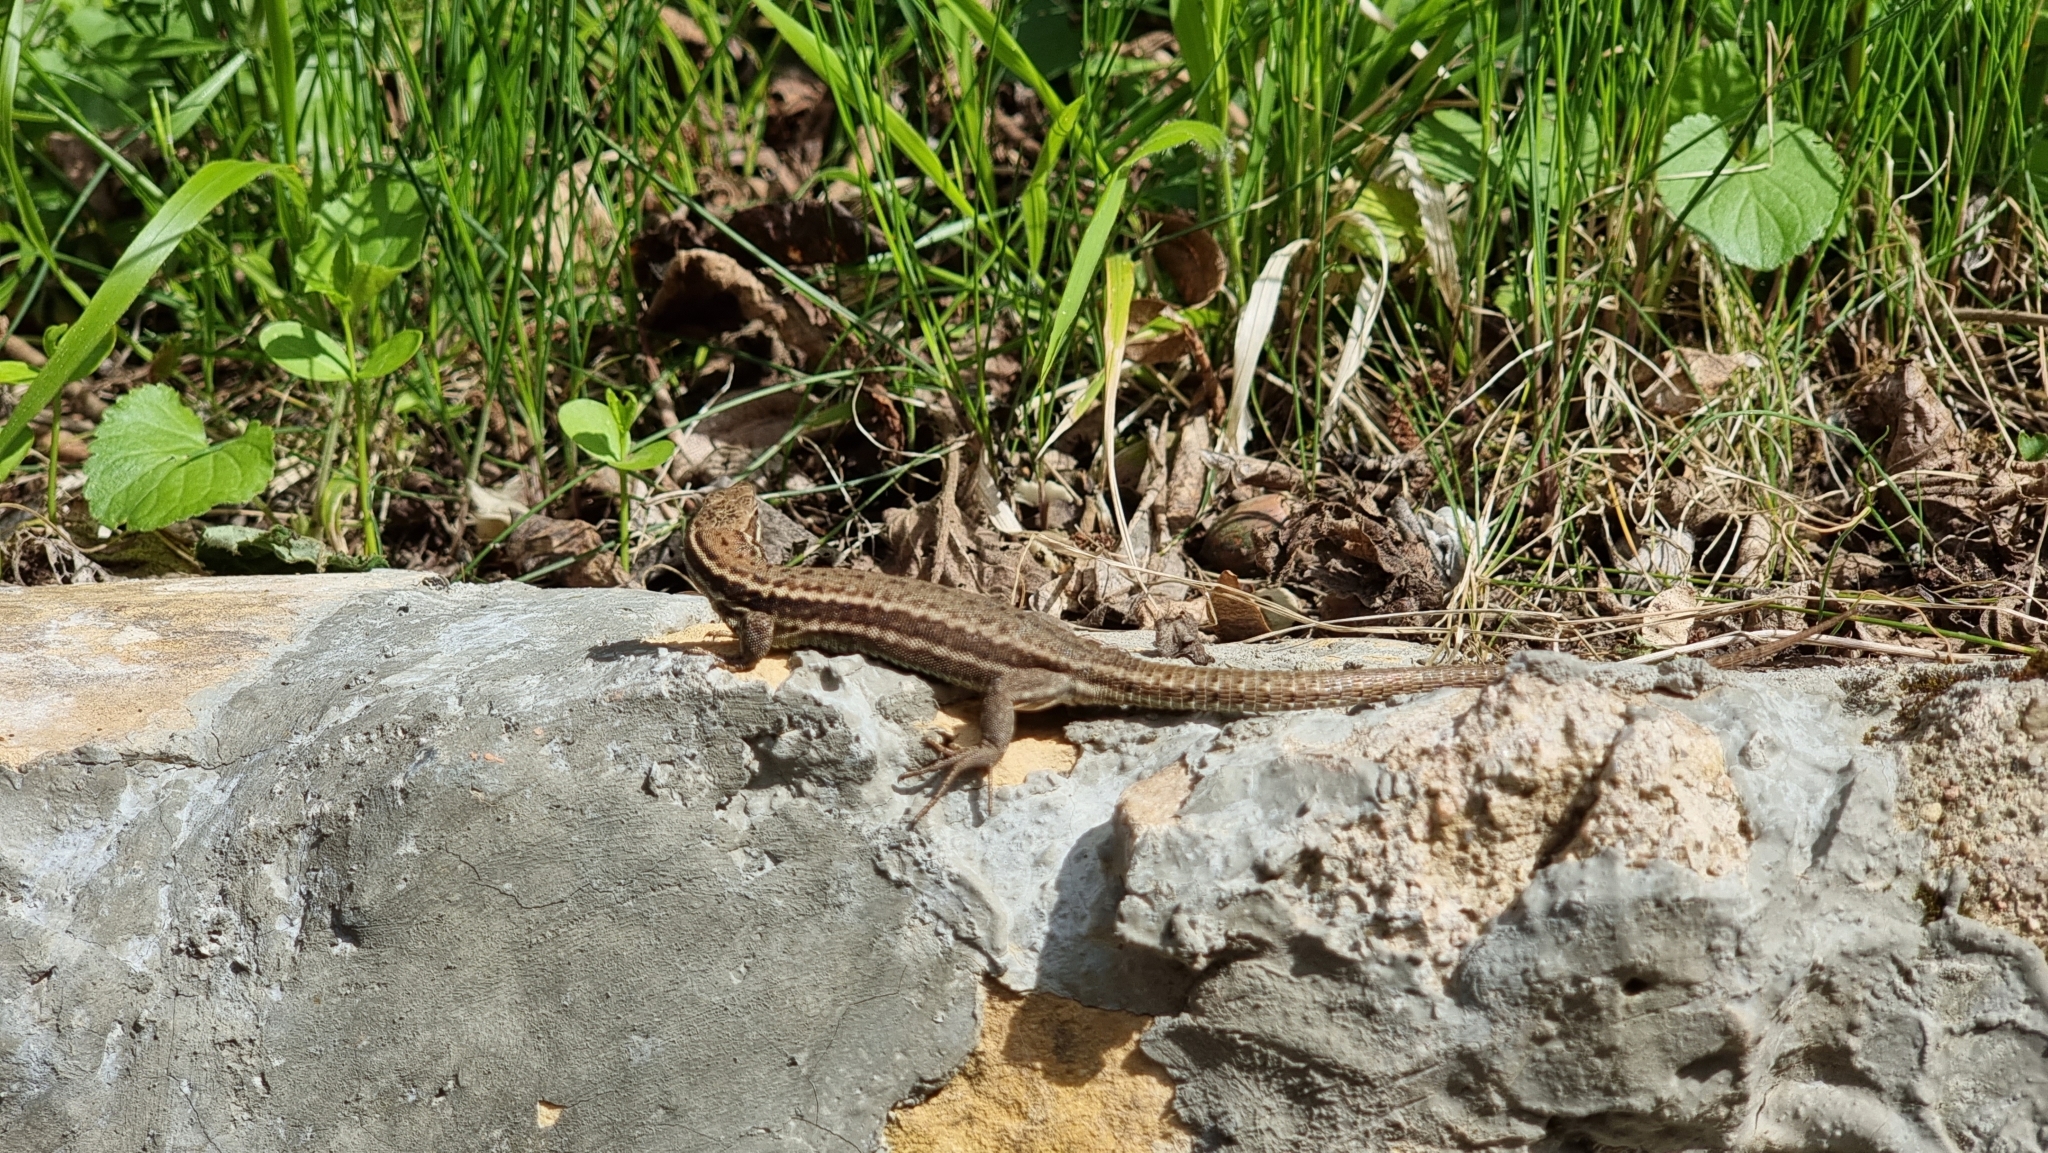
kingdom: Animalia
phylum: Chordata
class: Squamata
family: Lacertidae
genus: Podarcis
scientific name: Podarcis muralis
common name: Common wall lizard
